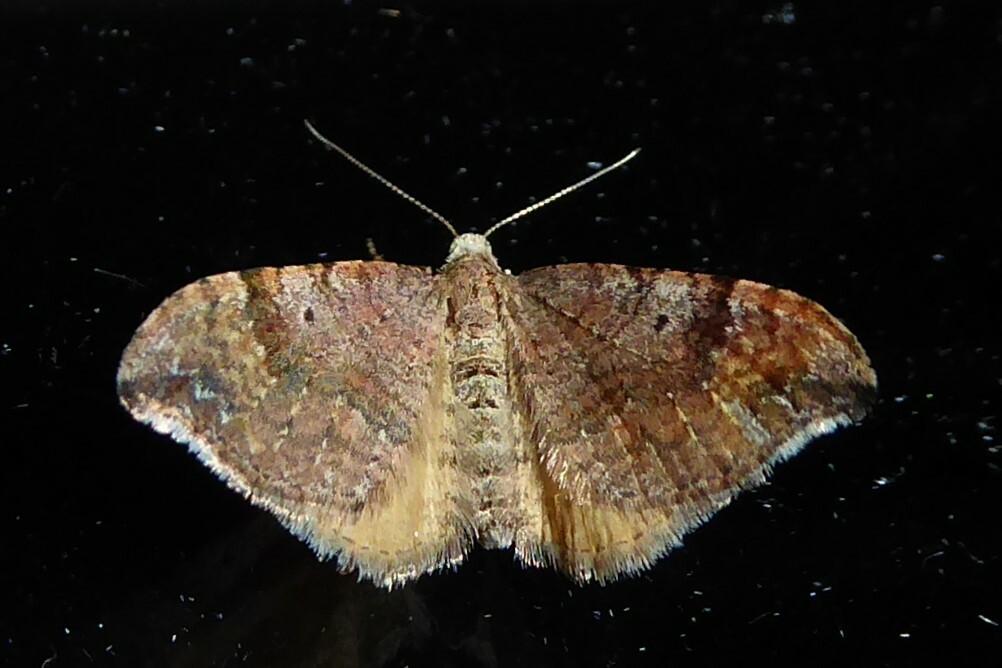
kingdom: Animalia
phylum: Arthropoda
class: Insecta
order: Lepidoptera
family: Geometridae
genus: Homodotis
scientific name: Homodotis megaspilata
